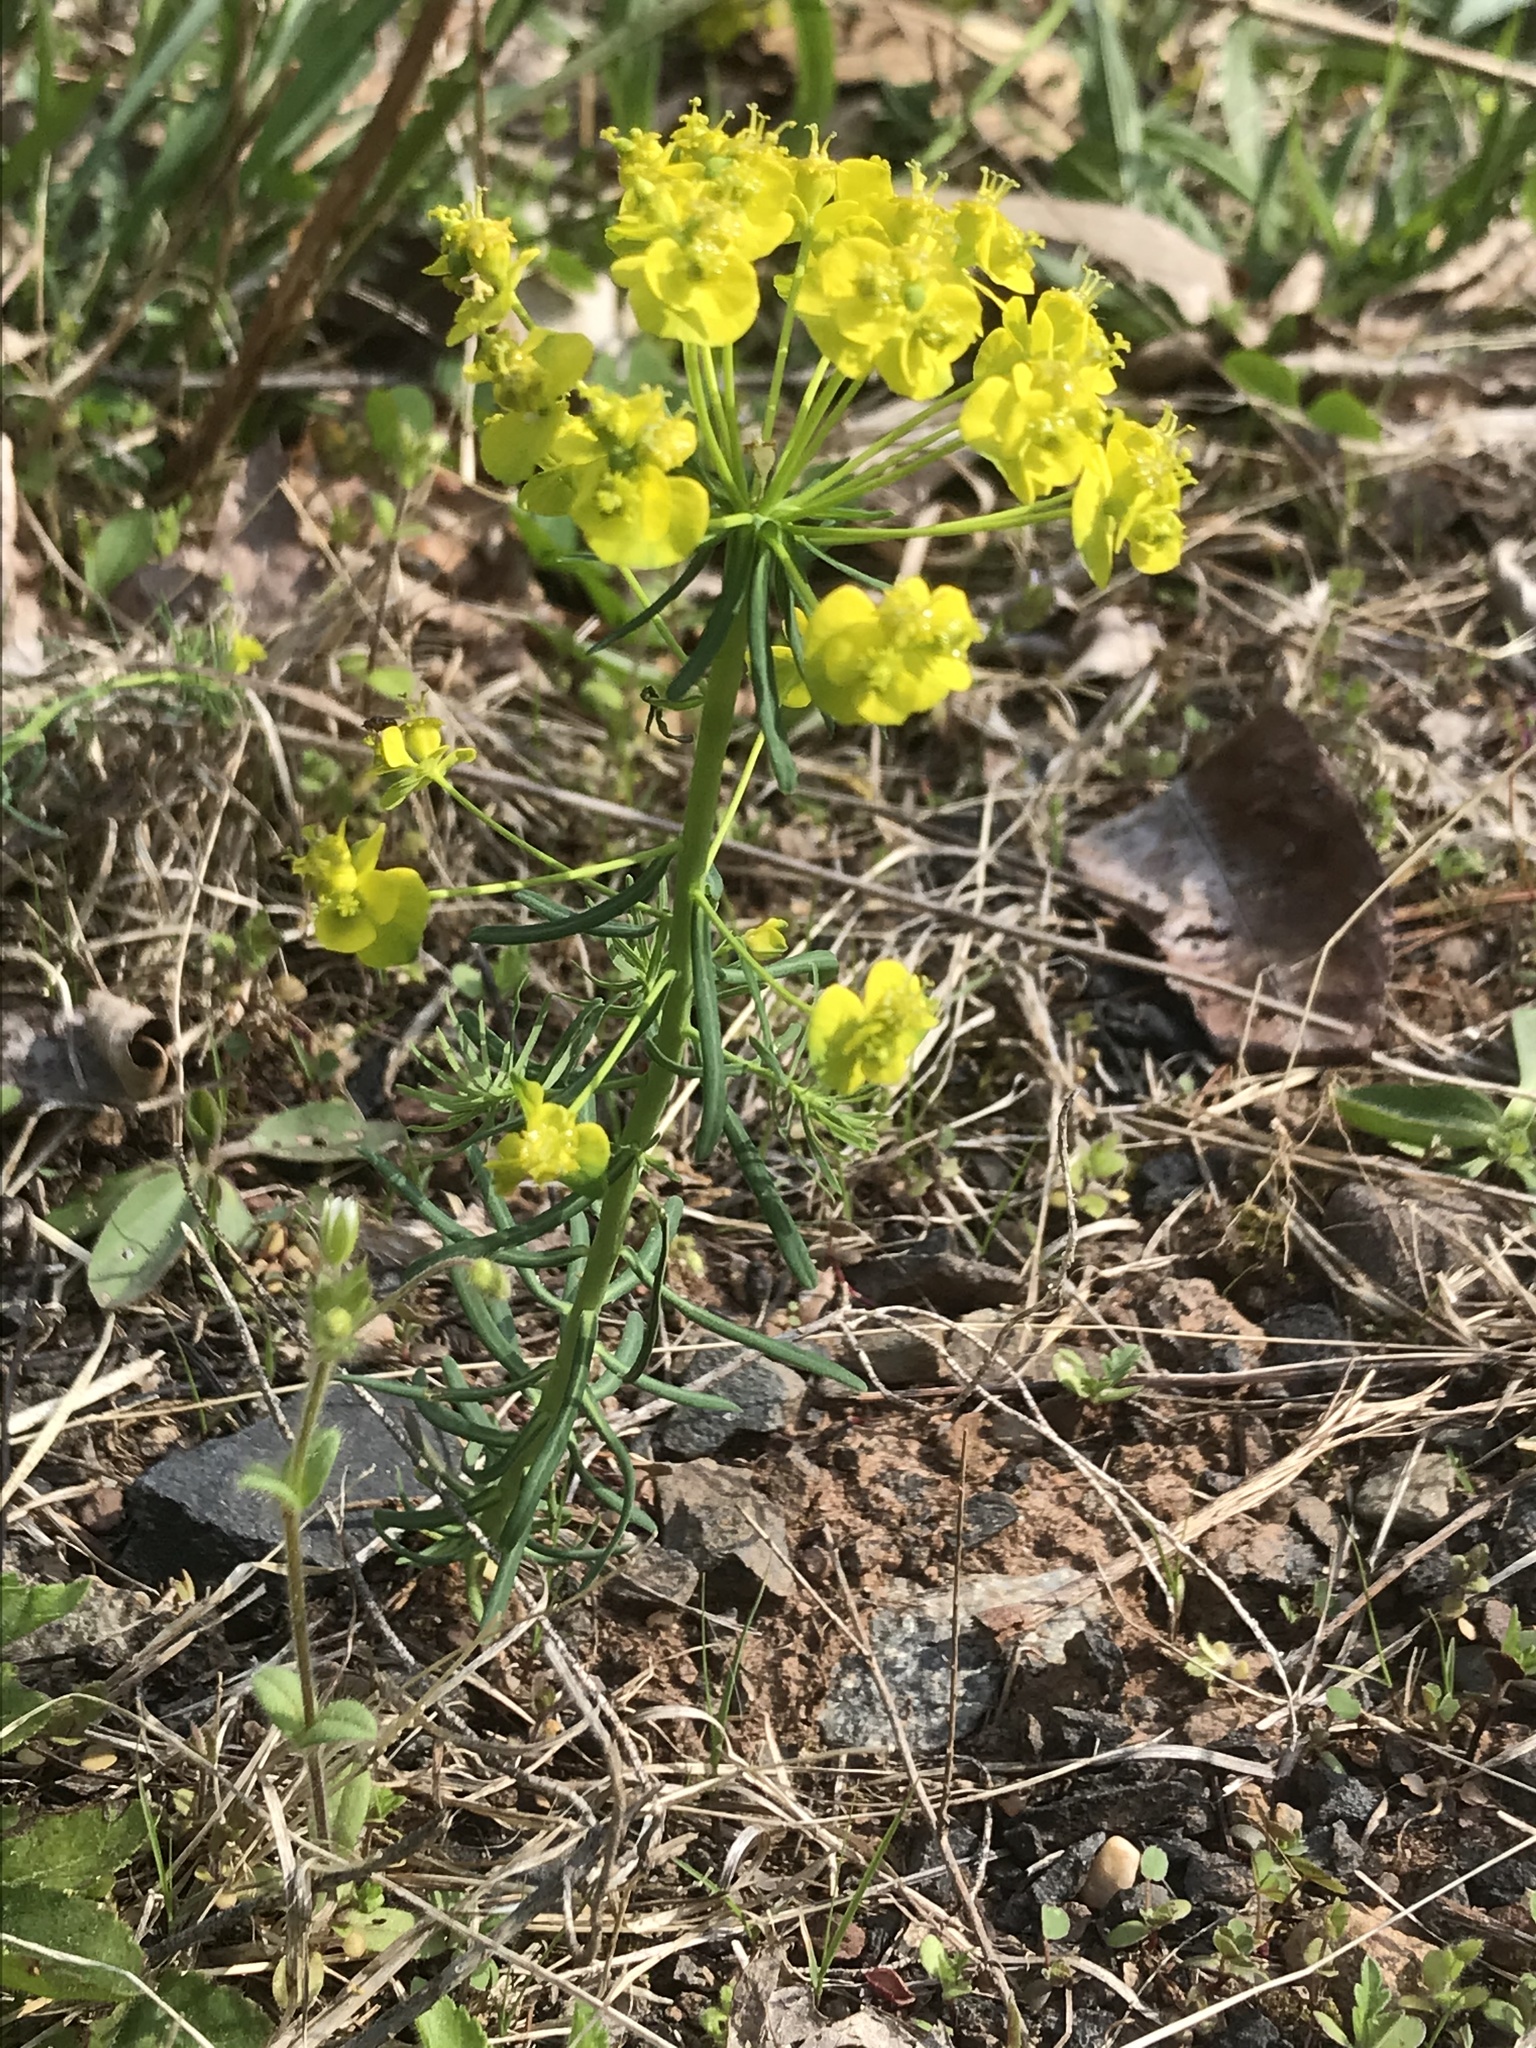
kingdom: Plantae
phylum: Tracheophyta
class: Magnoliopsida
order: Malpighiales
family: Euphorbiaceae
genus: Euphorbia
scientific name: Euphorbia cyparissias
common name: Cypress spurge
